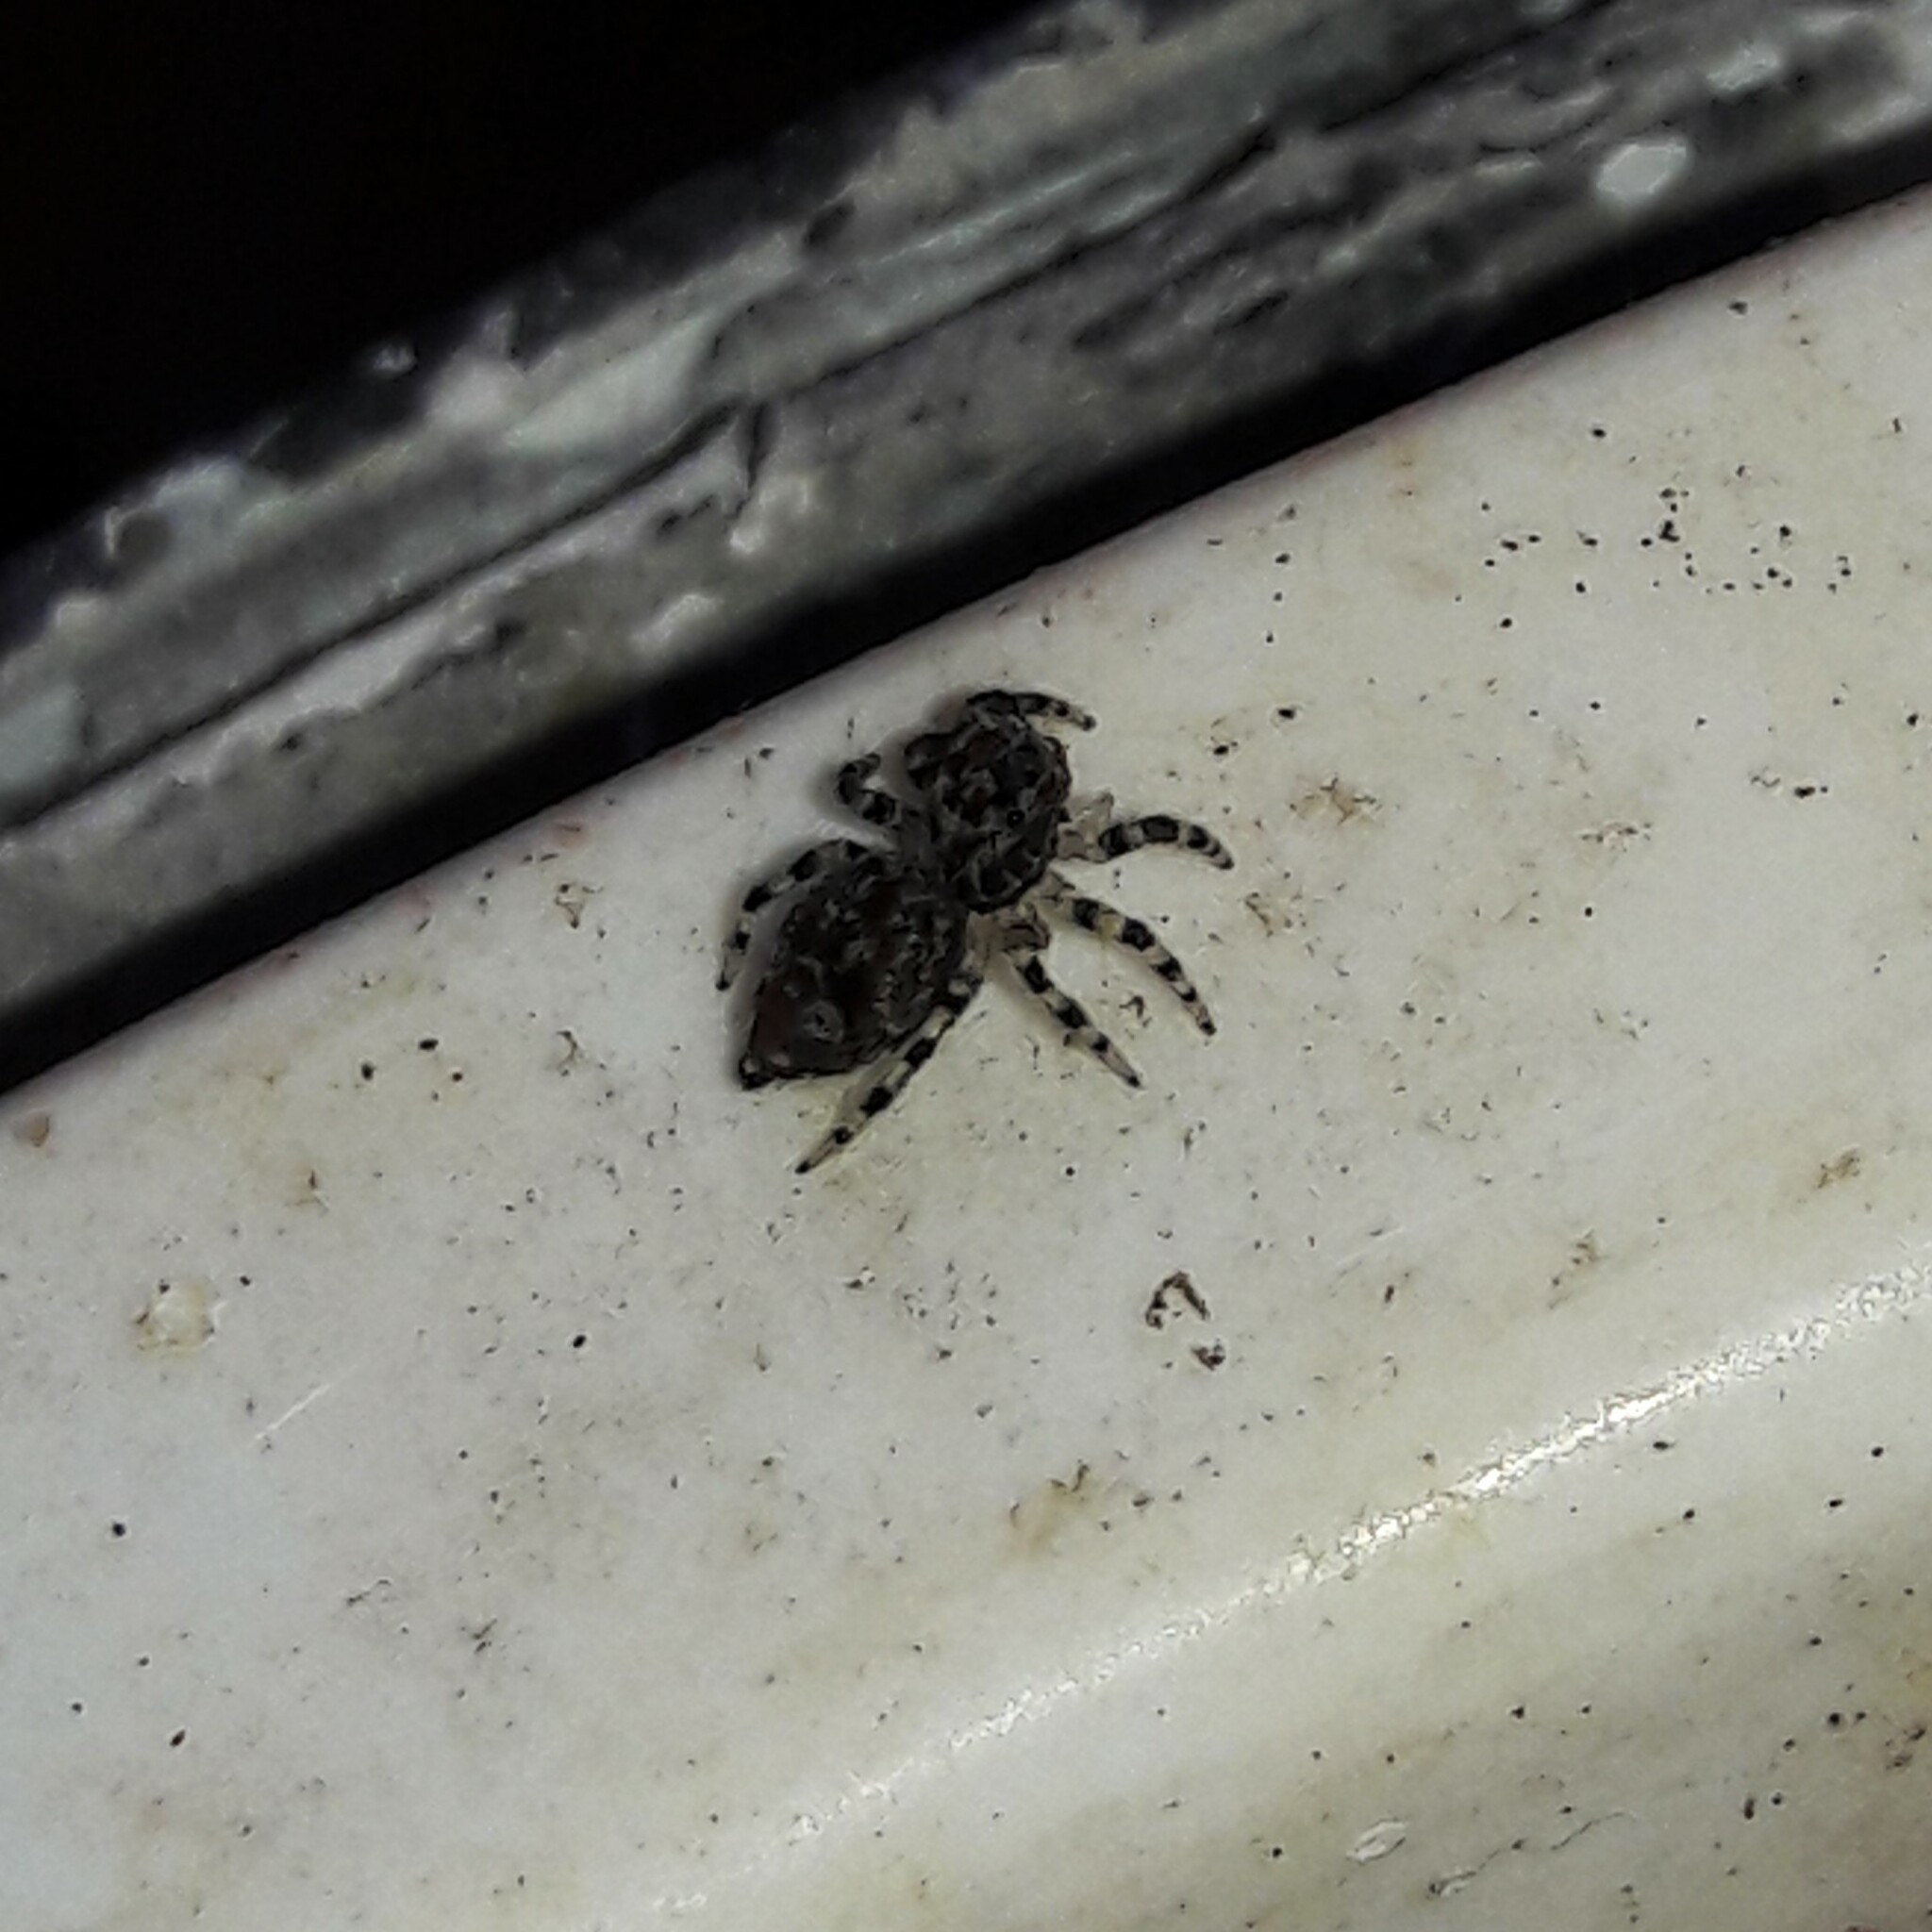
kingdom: Animalia
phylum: Arthropoda
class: Arachnida
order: Araneae
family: Salticidae
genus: Sumampattus
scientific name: Sumampattus quinqueradiatus
